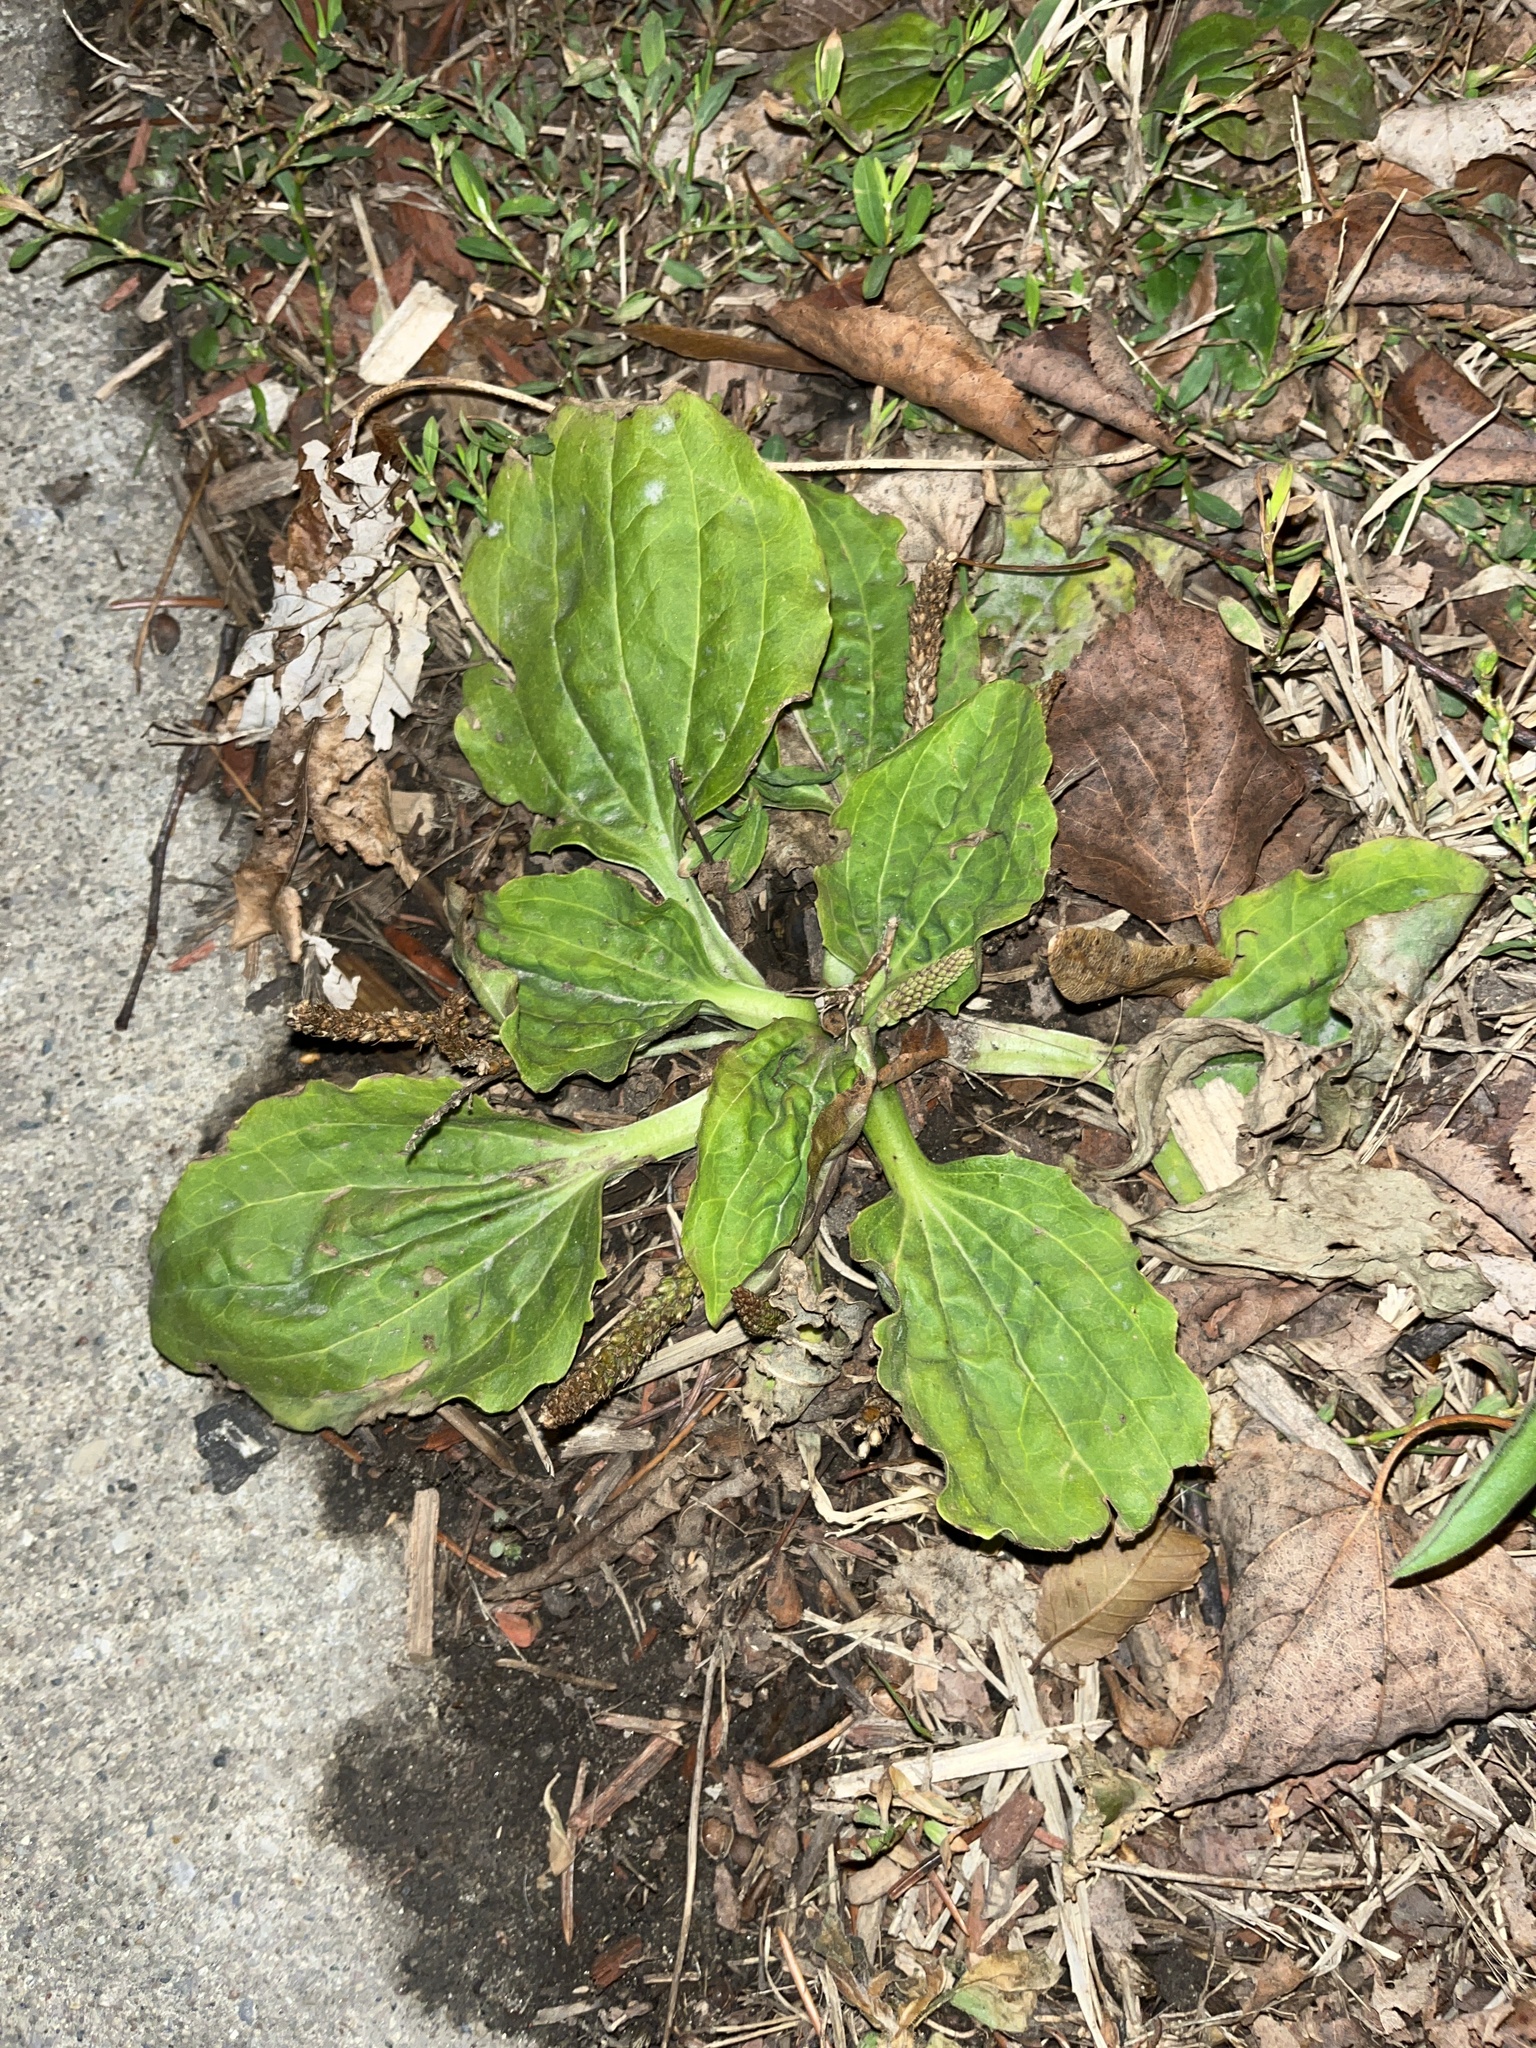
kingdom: Plantae
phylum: Tracheophyta
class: Magnoliopsida
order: Lamiales
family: Plantaginaceae
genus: Plantago
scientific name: Plantago major
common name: Common plantain
